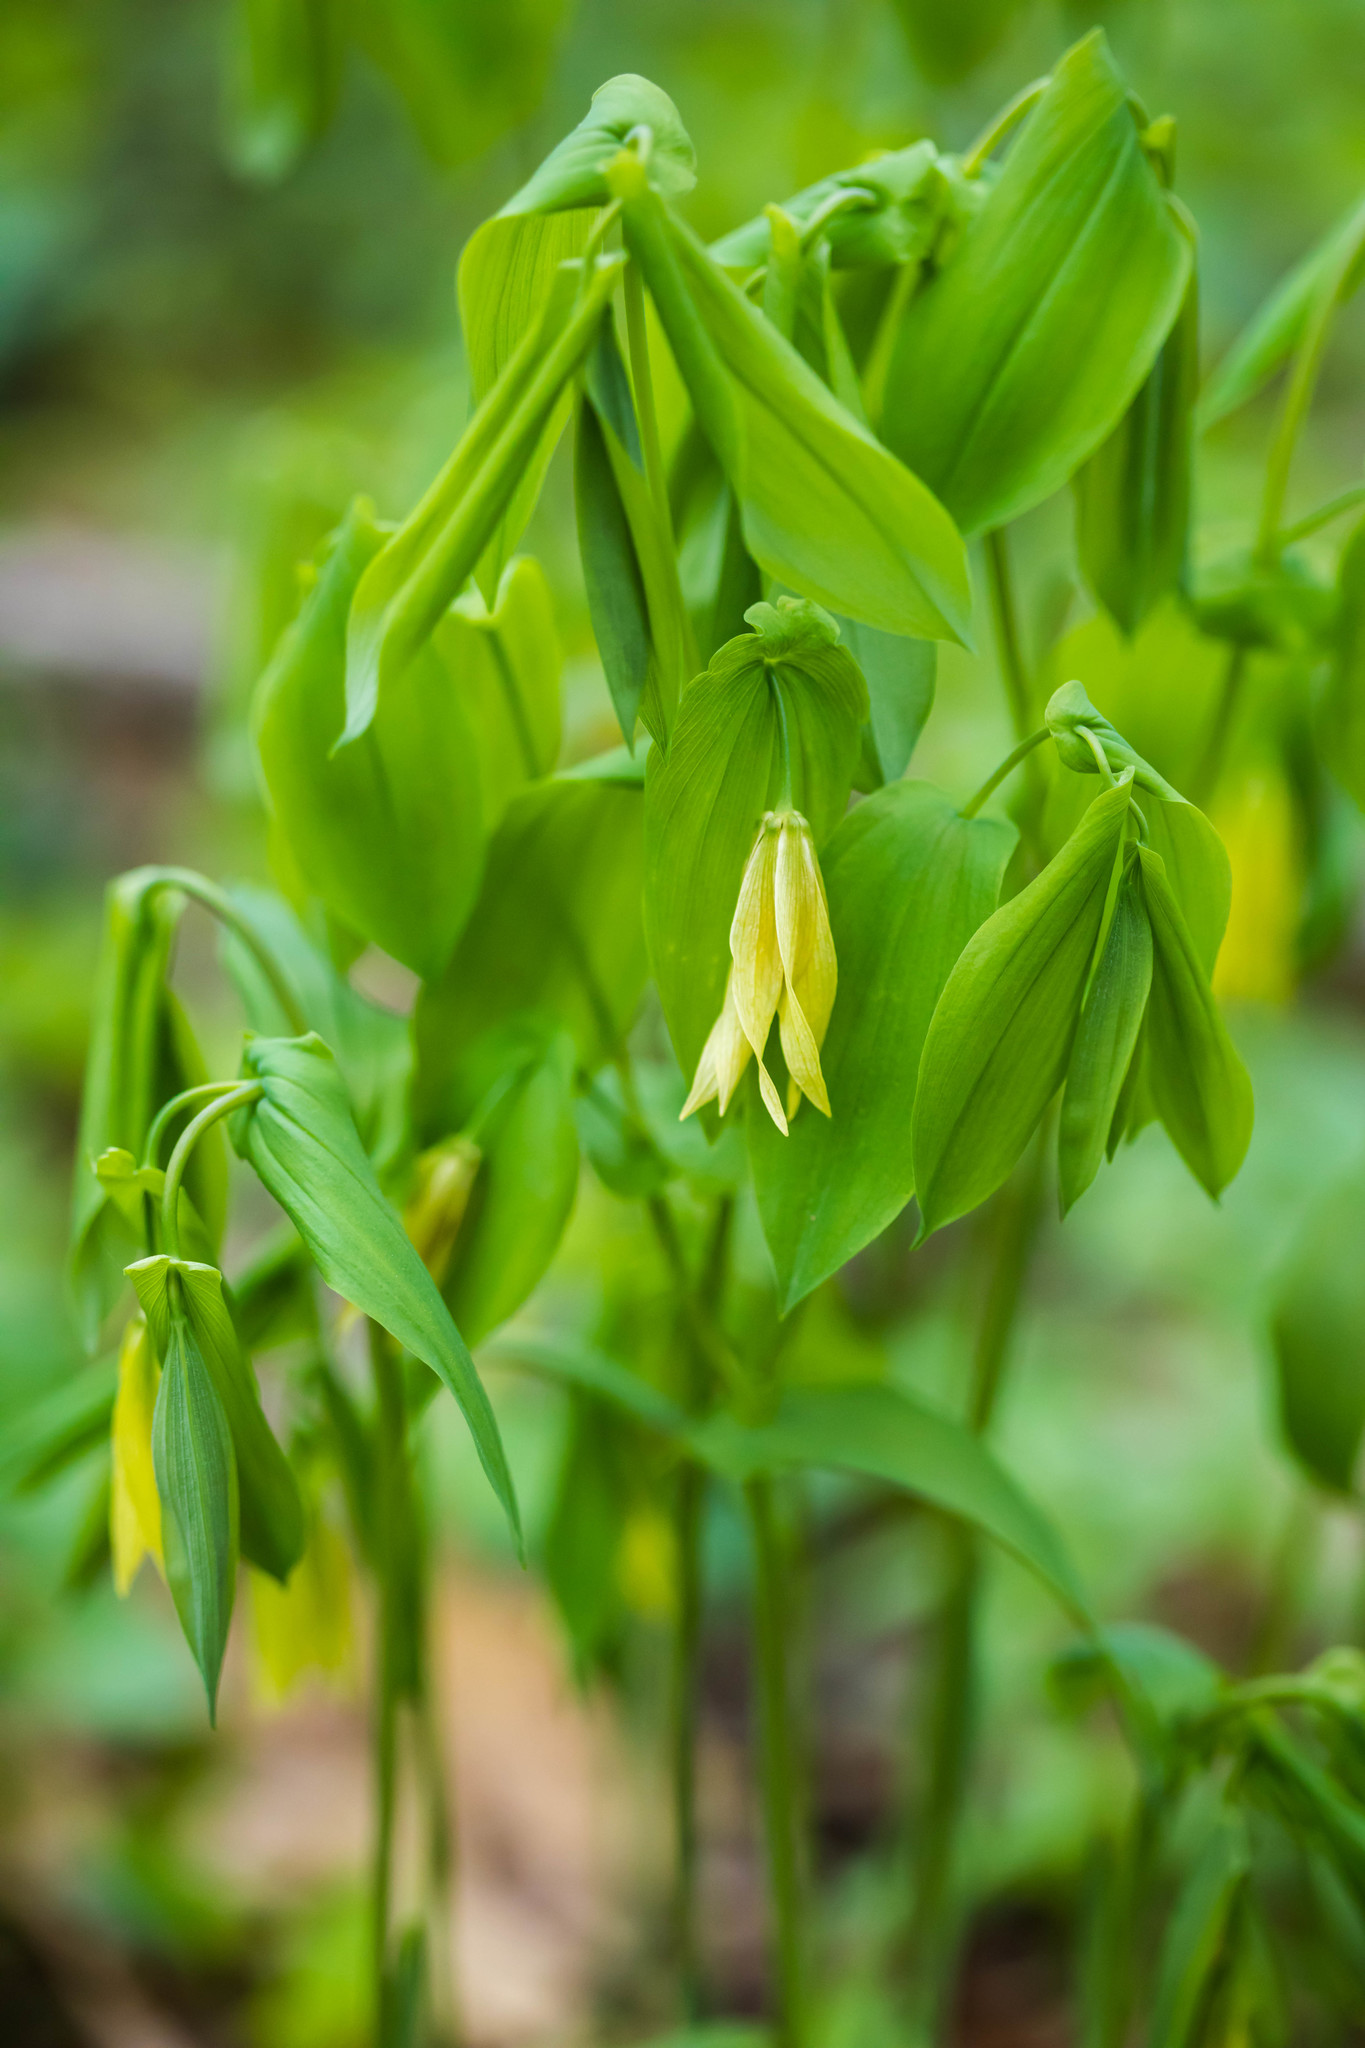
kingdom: Plantae
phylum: Tracheophyta
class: Liliopsida
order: Liliales
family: Colchicaceae
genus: Uvularia
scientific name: Uvularia grandiflora
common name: Bellwort
